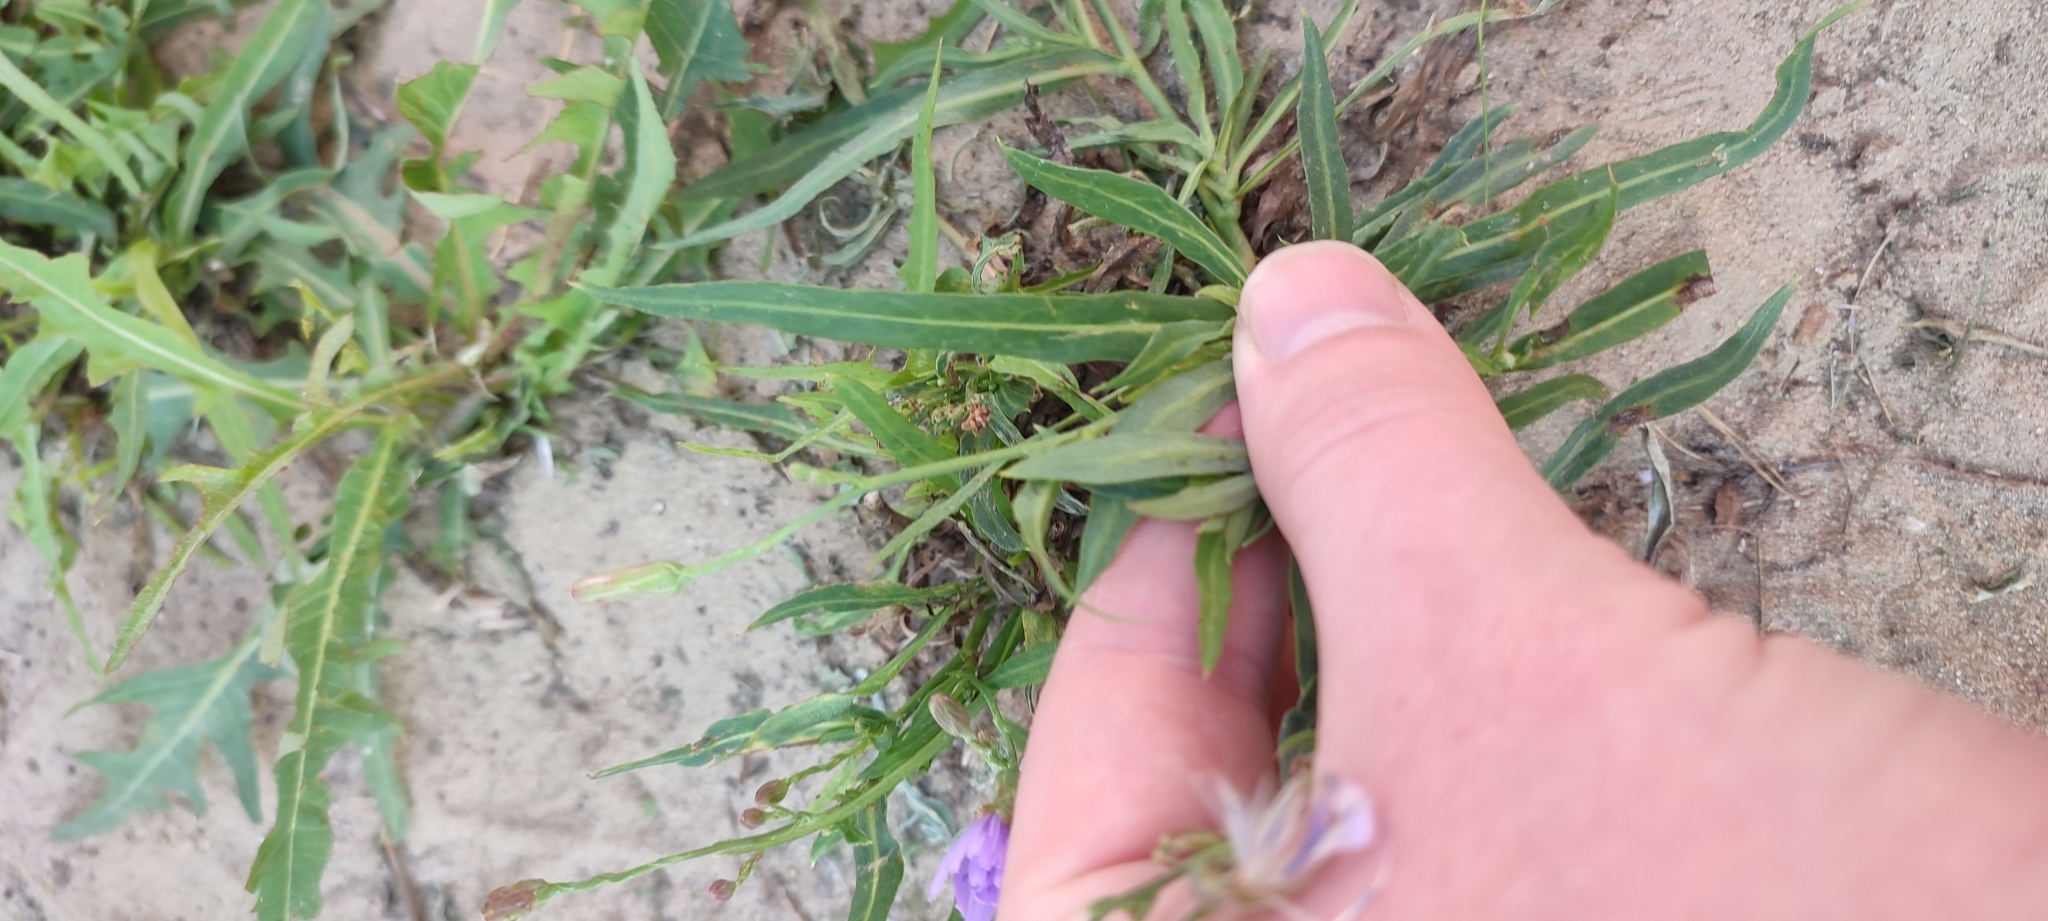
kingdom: Plantae
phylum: Tracheophyta
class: Magnoliopsida
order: Asterales
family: Asteraceae
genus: Lactuca
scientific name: Lactuca tatarica
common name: Blue lettuce
